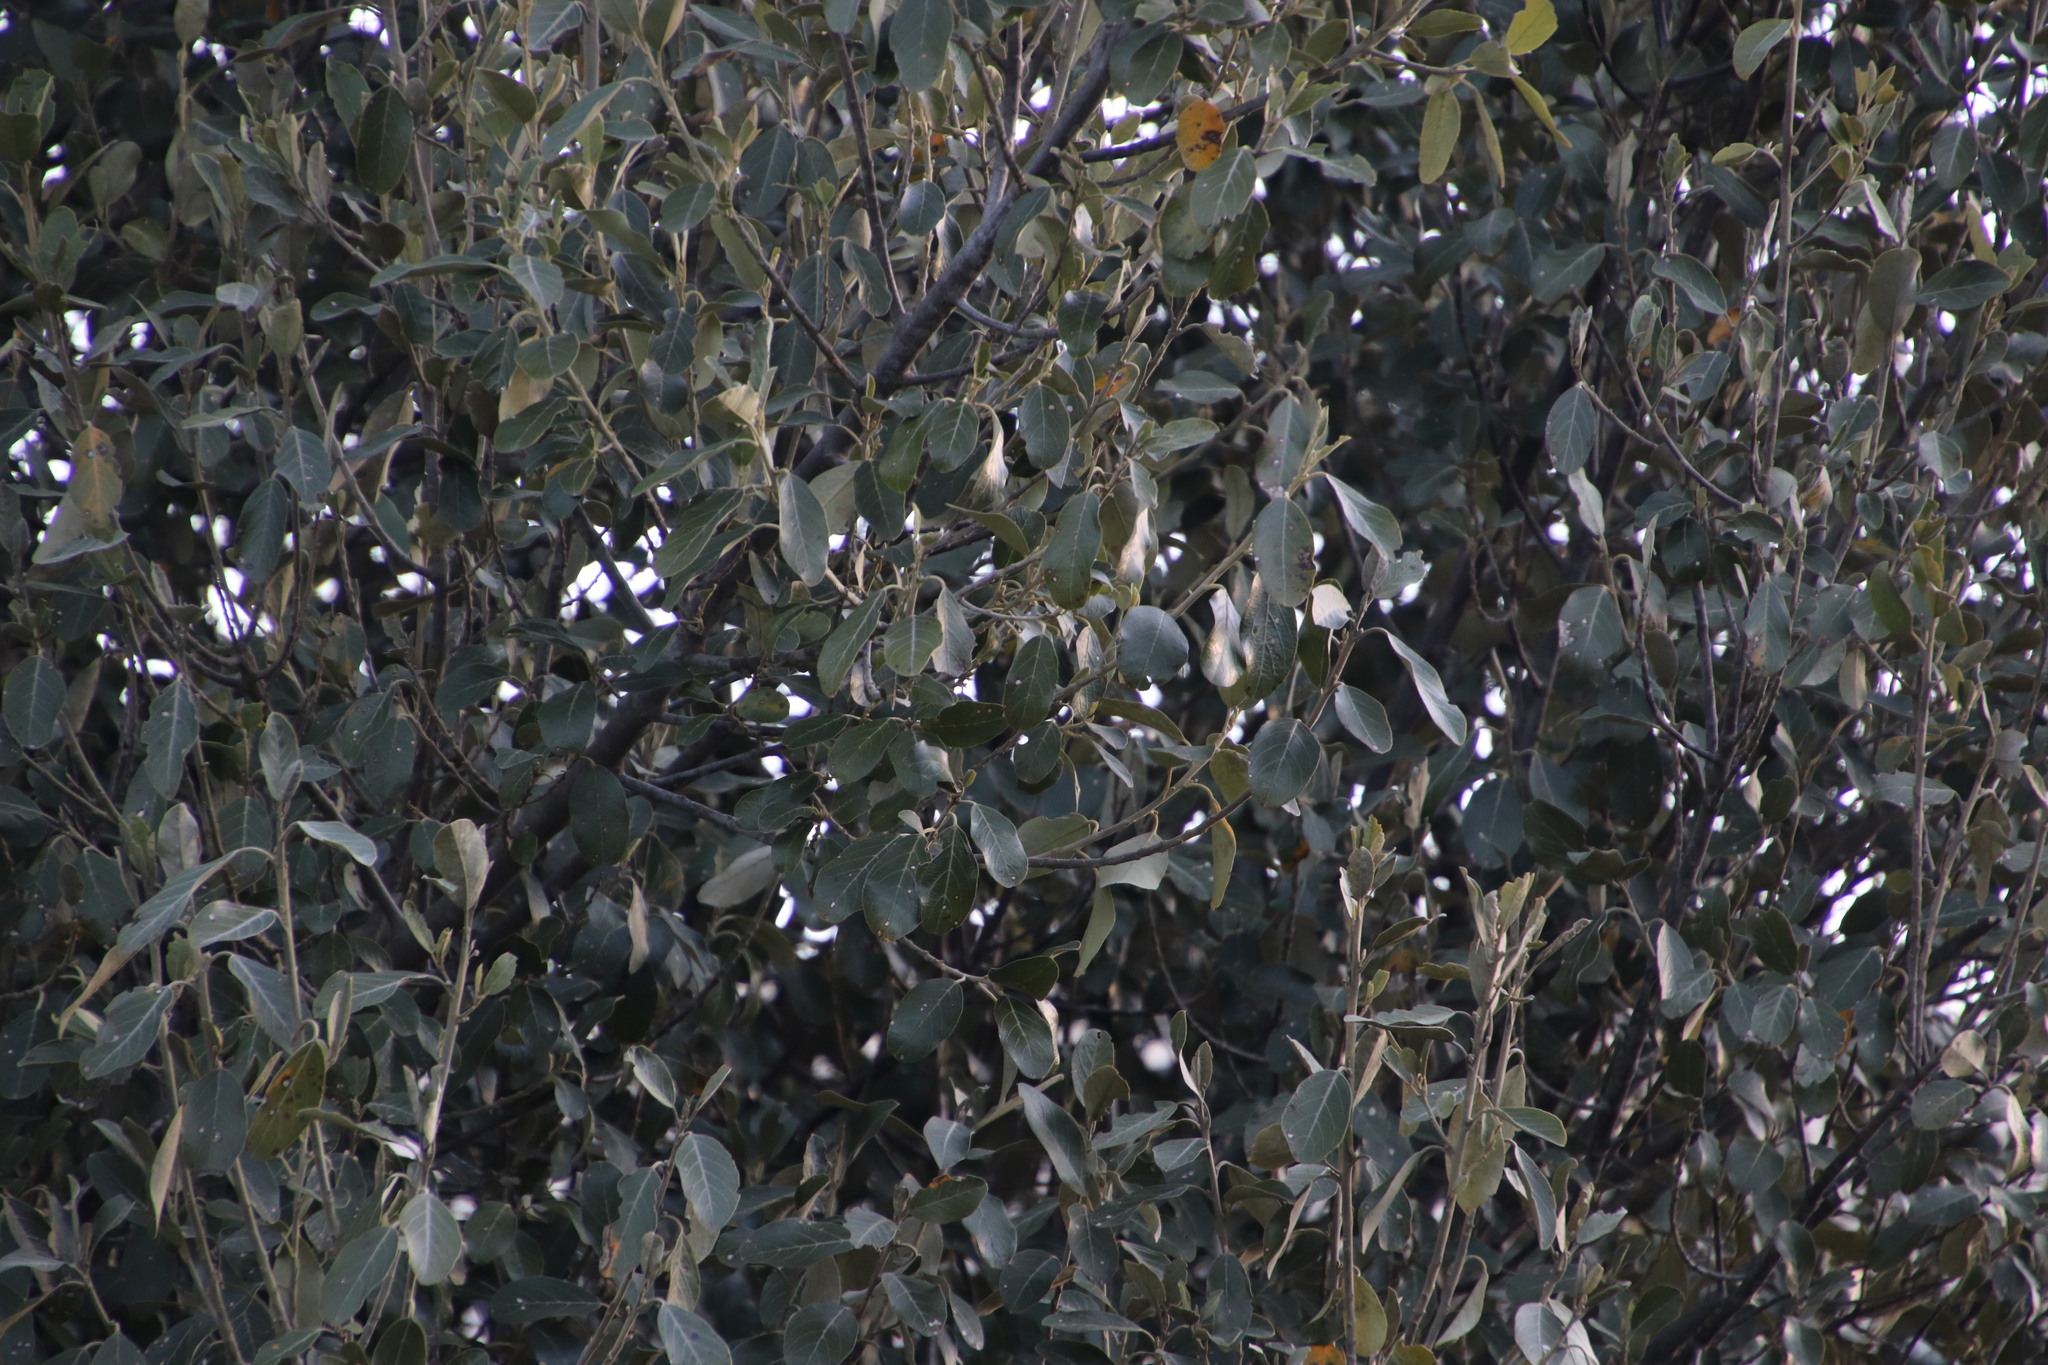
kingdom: Plantae
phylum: Tracheophyta
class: Magnoliopsida
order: Malpighiales
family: Achariaceae
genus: Kiggelaria
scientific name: Kiggelaria africana
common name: Wild peach
